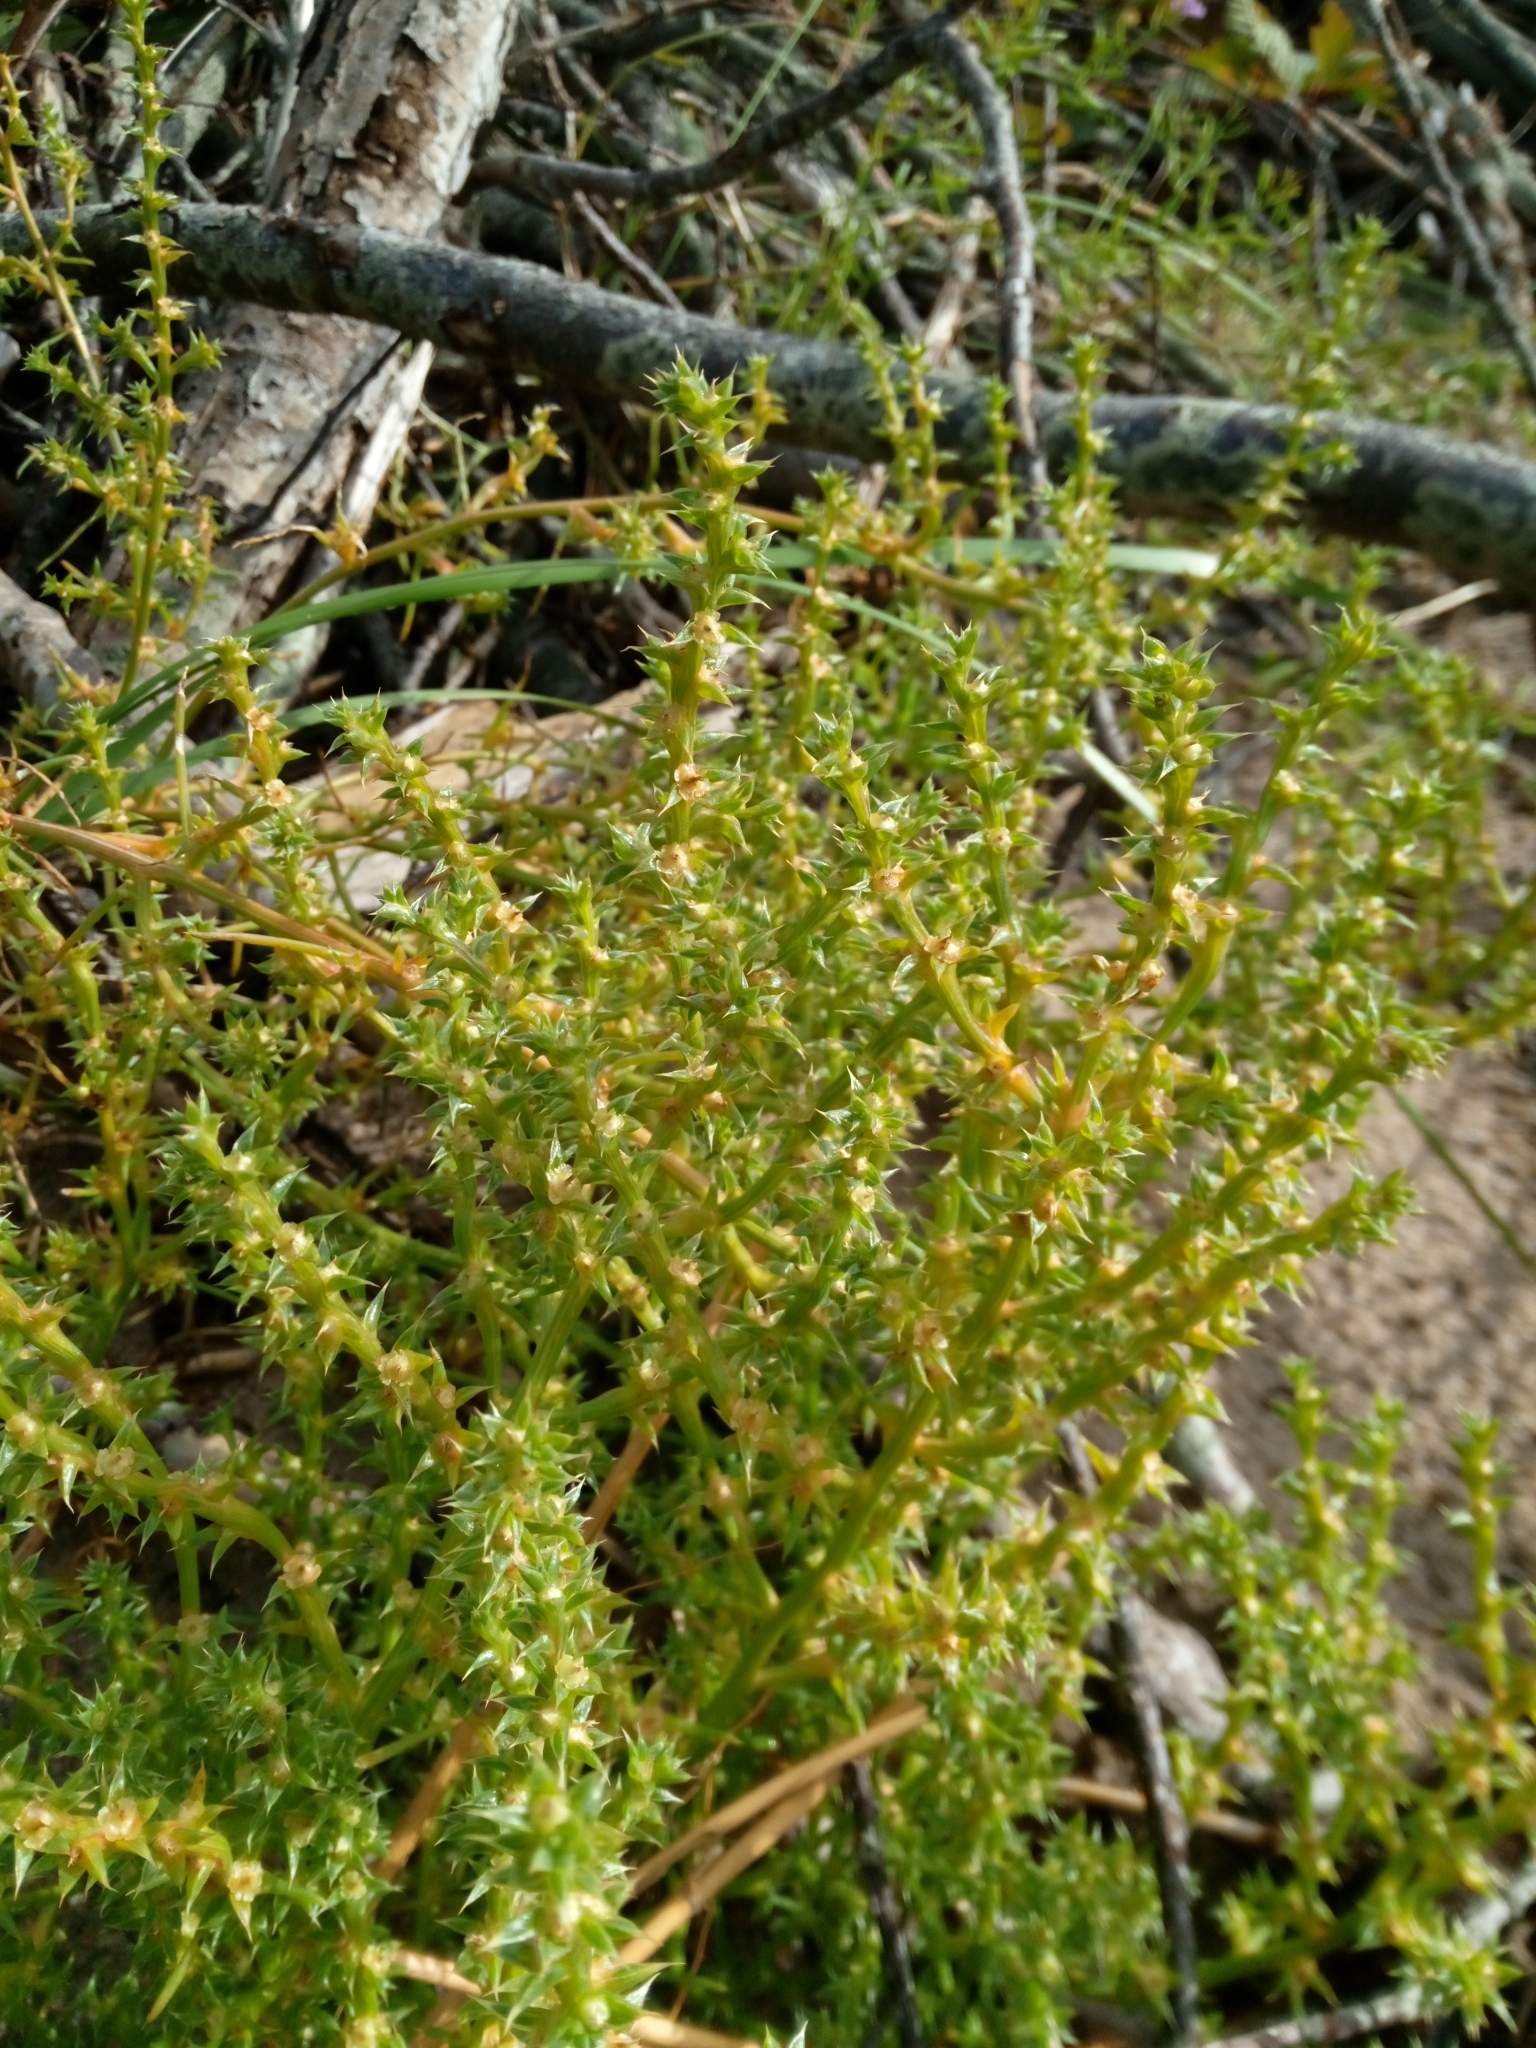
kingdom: Plantae
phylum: Tracheophyta
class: Magnoliopsida
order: Caryophyllales
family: Amaranthaceae
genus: Salsola
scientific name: Salsola kali
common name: Saltwort
